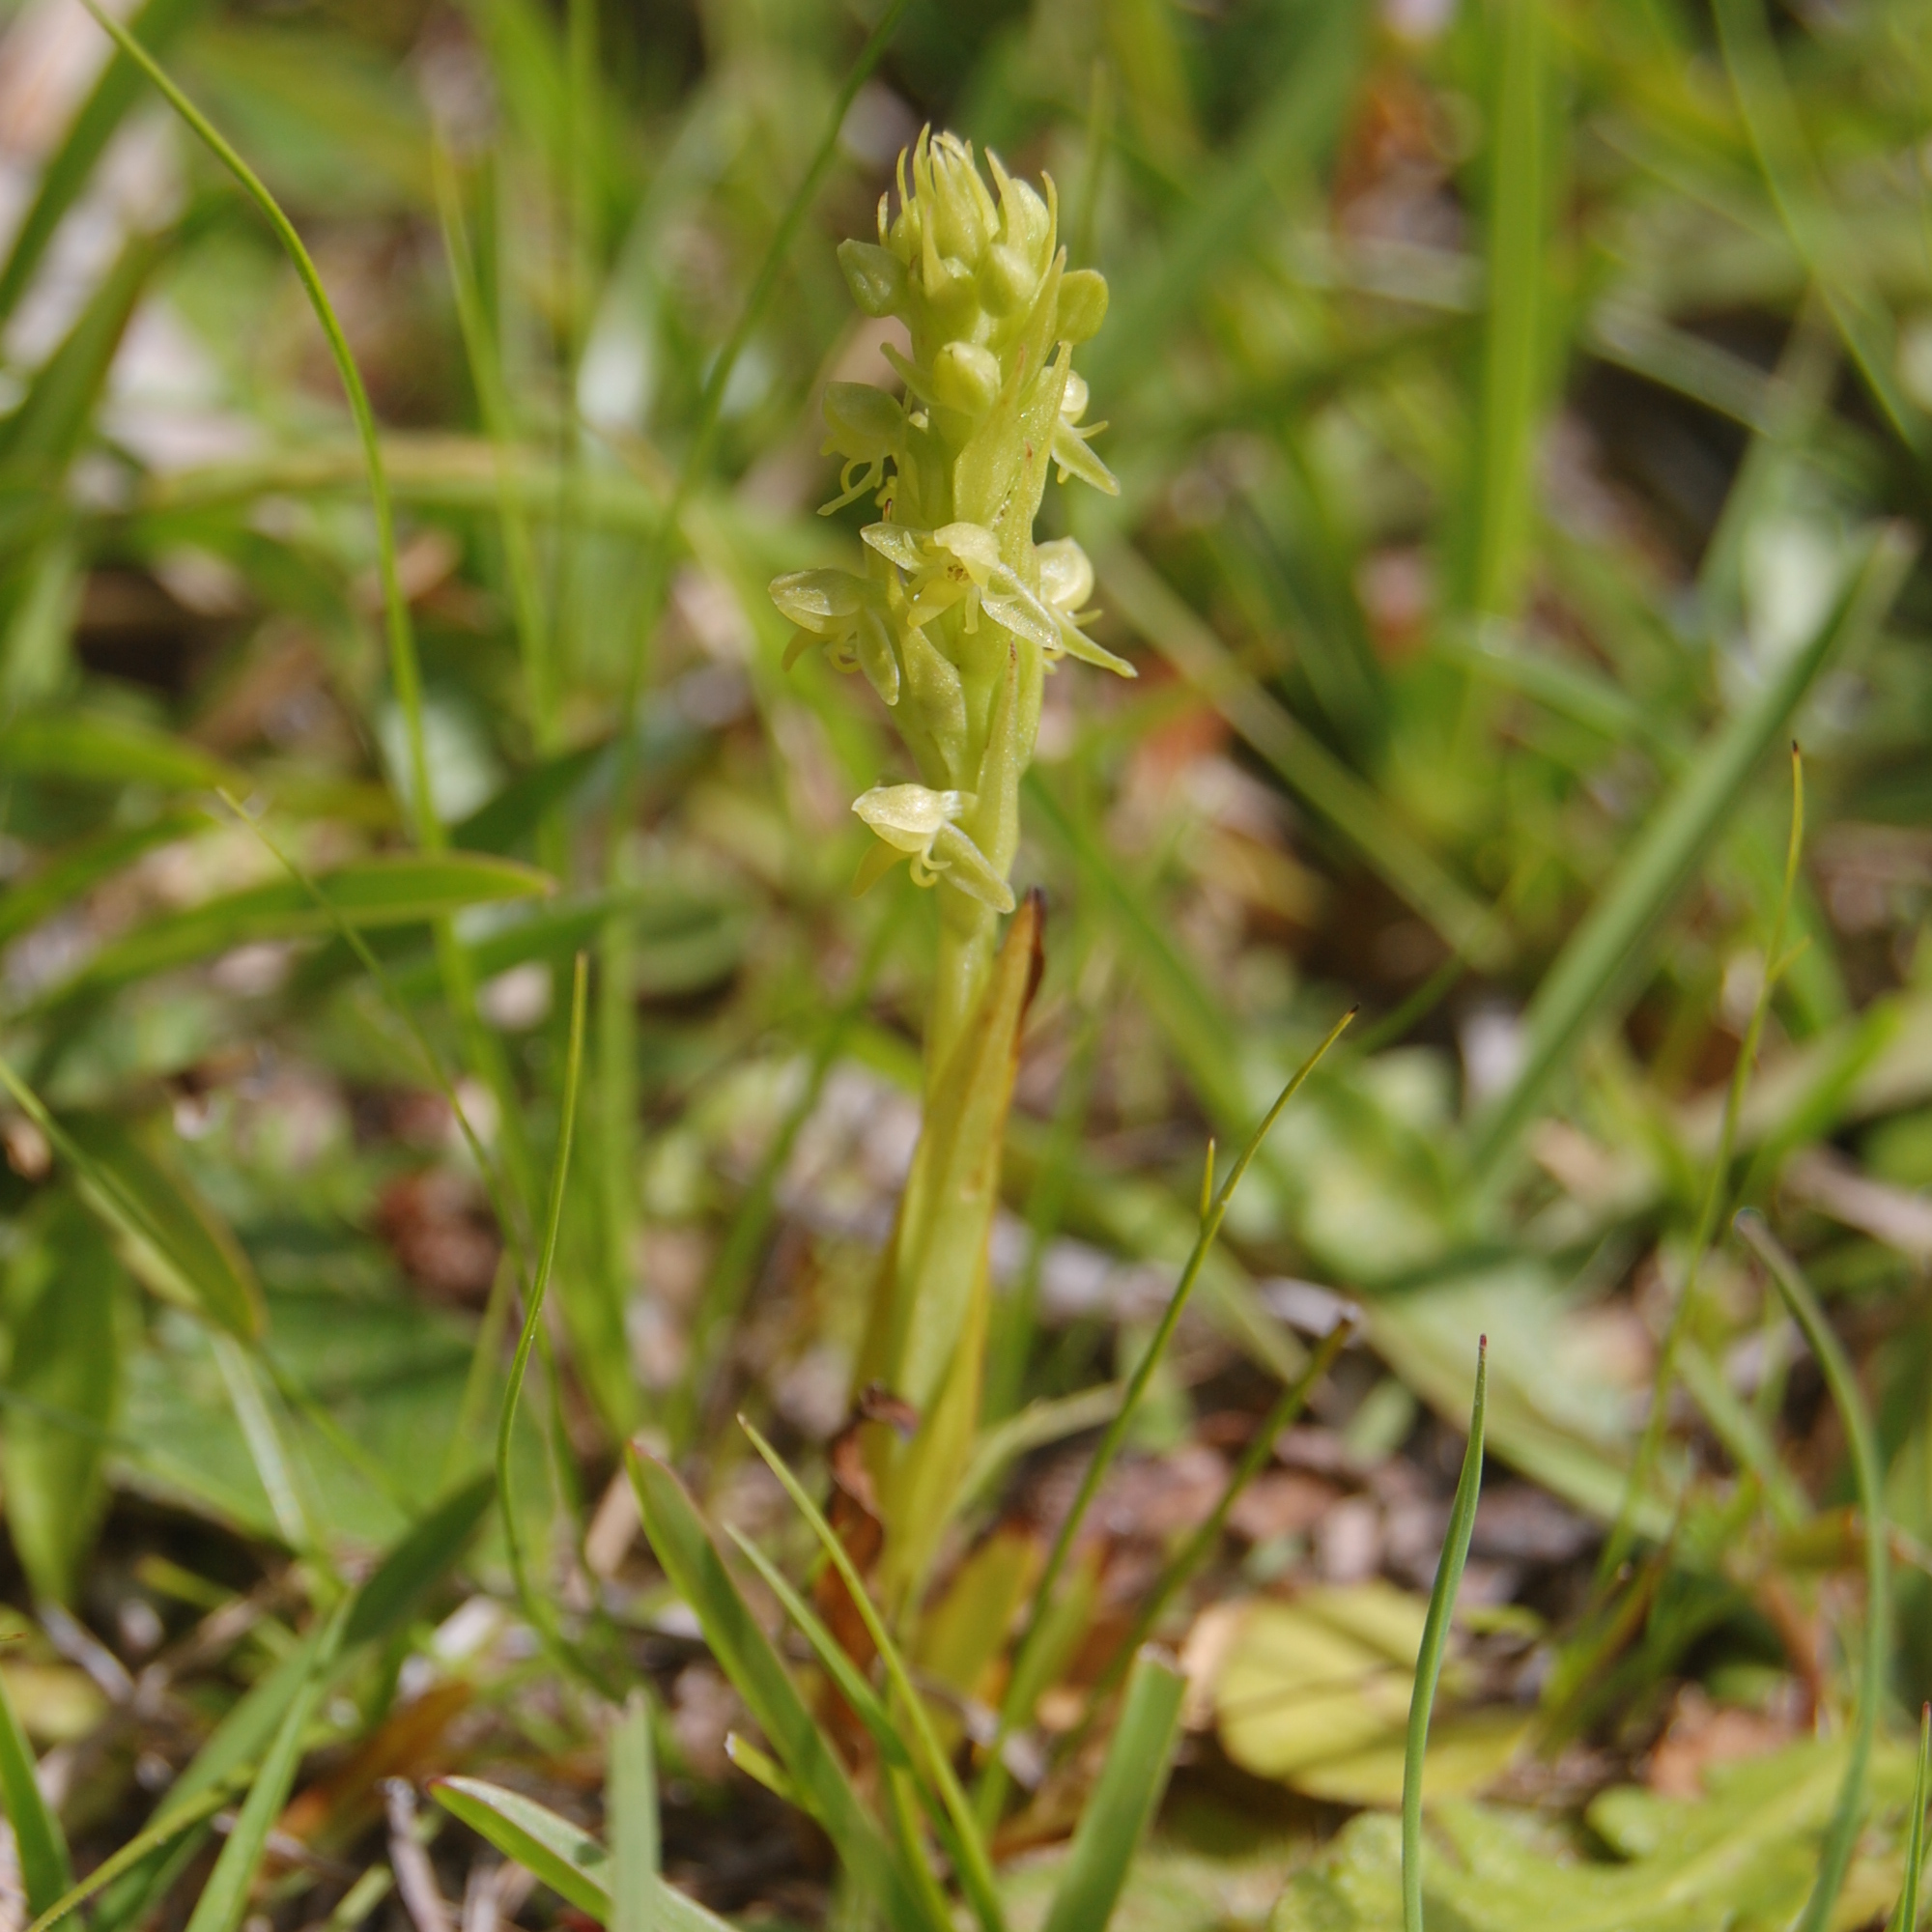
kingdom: Plantae
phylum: Tracheophyta
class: Liliopsida
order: Asparagales
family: Orchidaceae
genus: Habenaria
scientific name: Habenaria parviflora
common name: Small flowered habenaria
